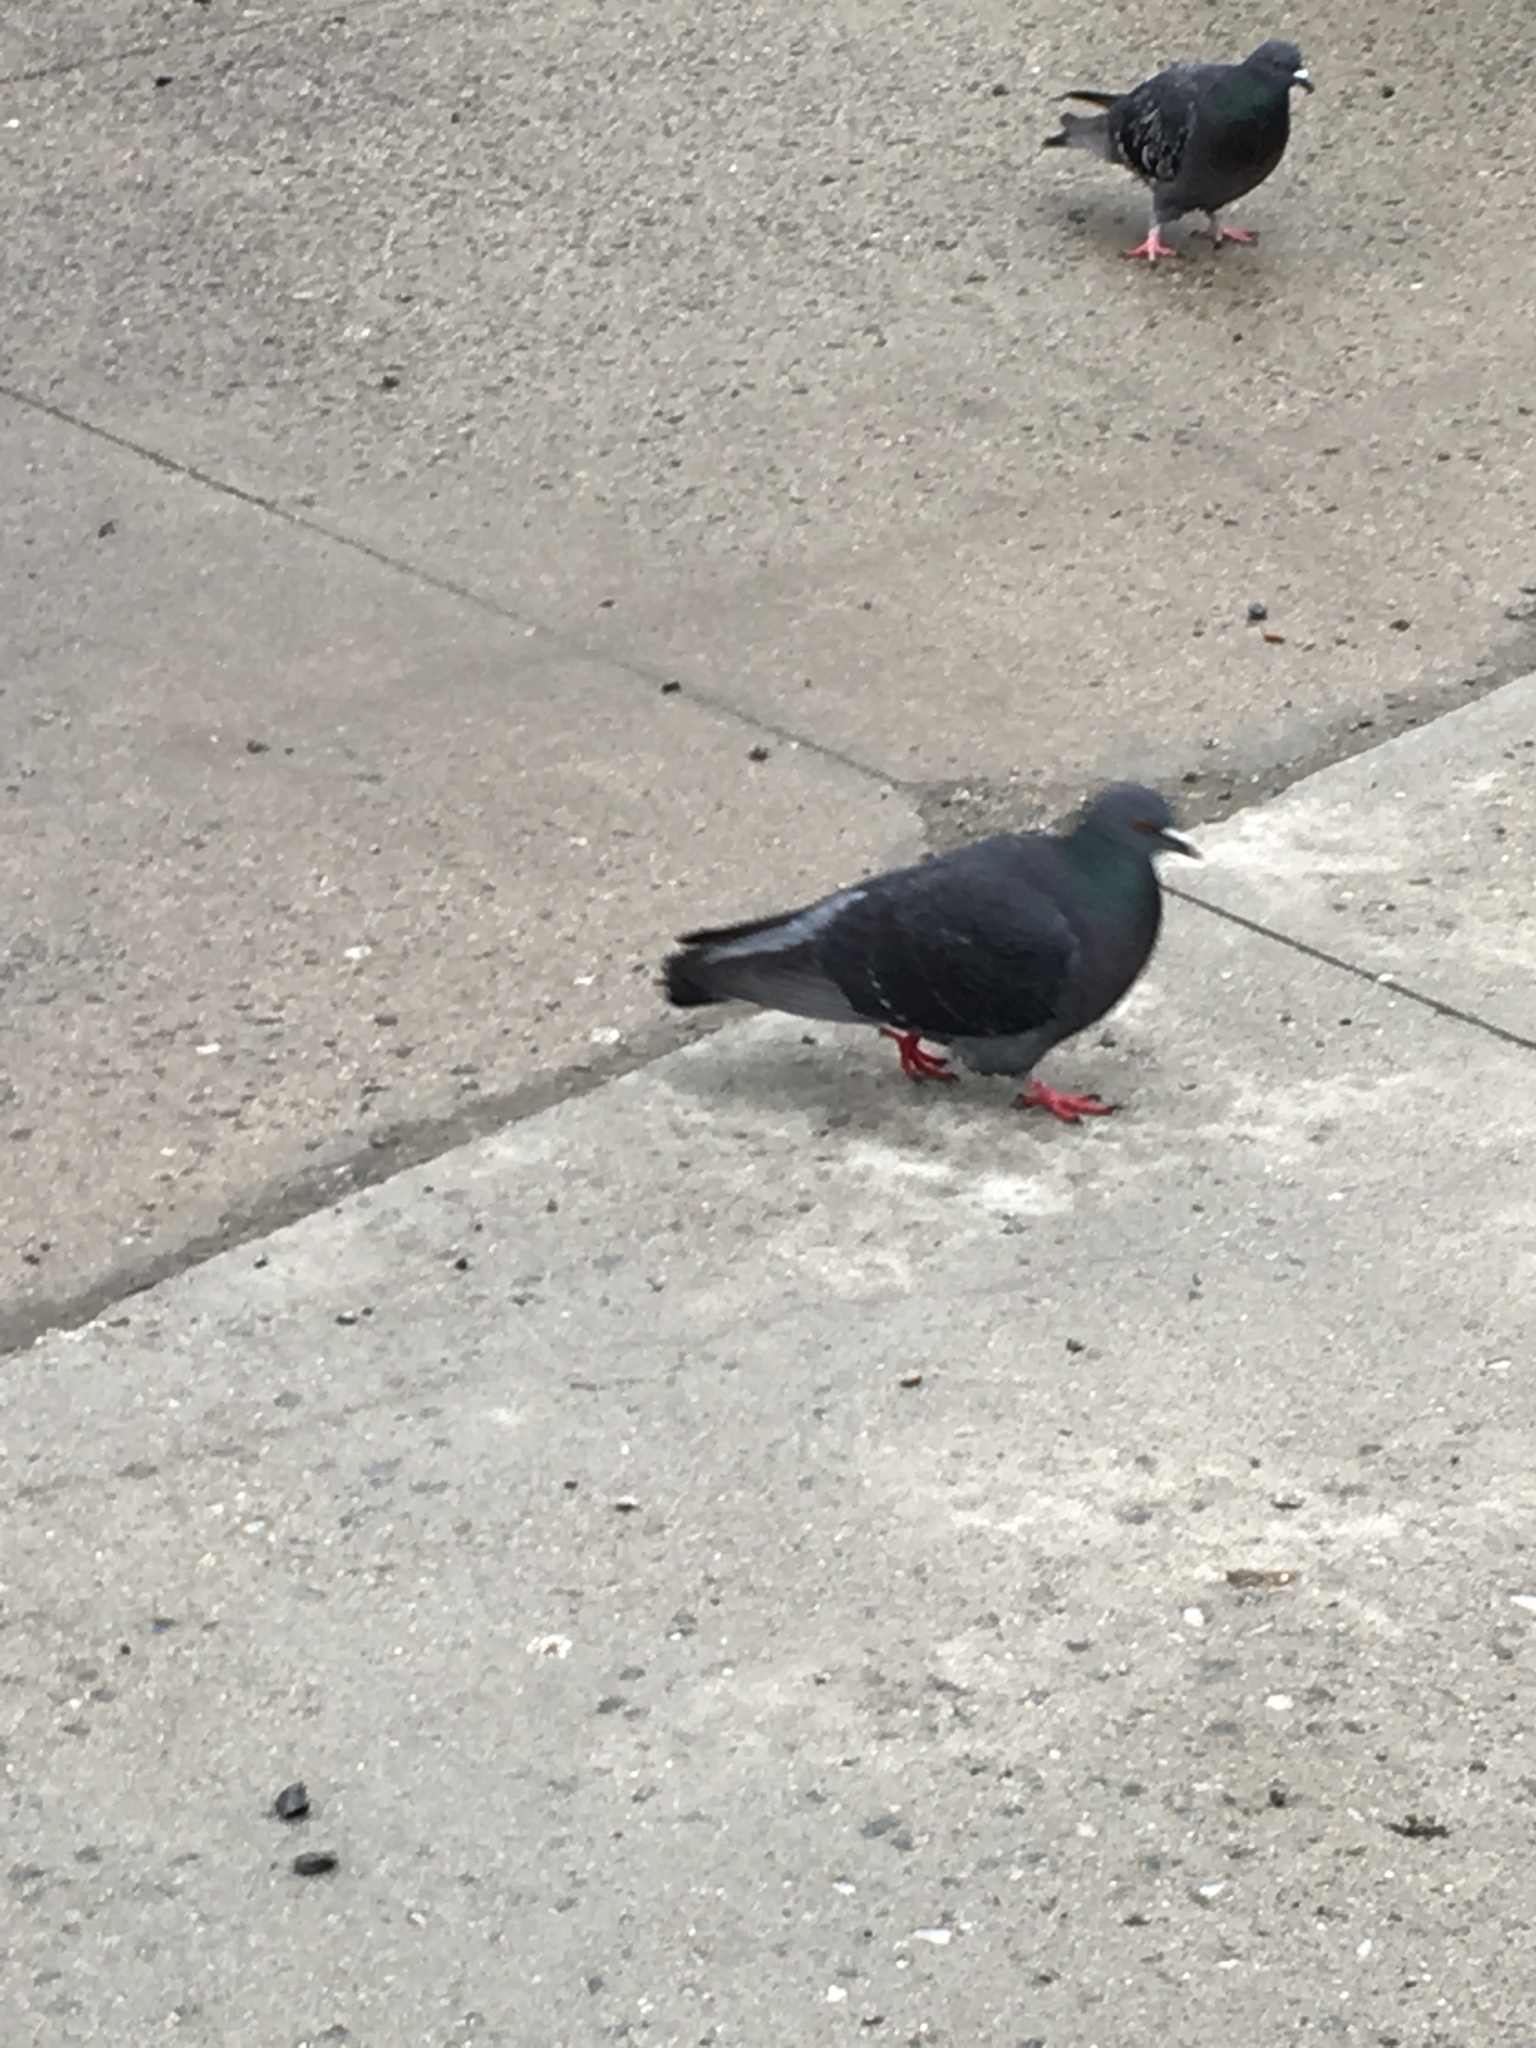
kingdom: Animalia
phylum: Chordata
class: Aves
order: Columbiformes
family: Columbidae
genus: Columba
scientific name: Columba livia
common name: Rock pigeon
